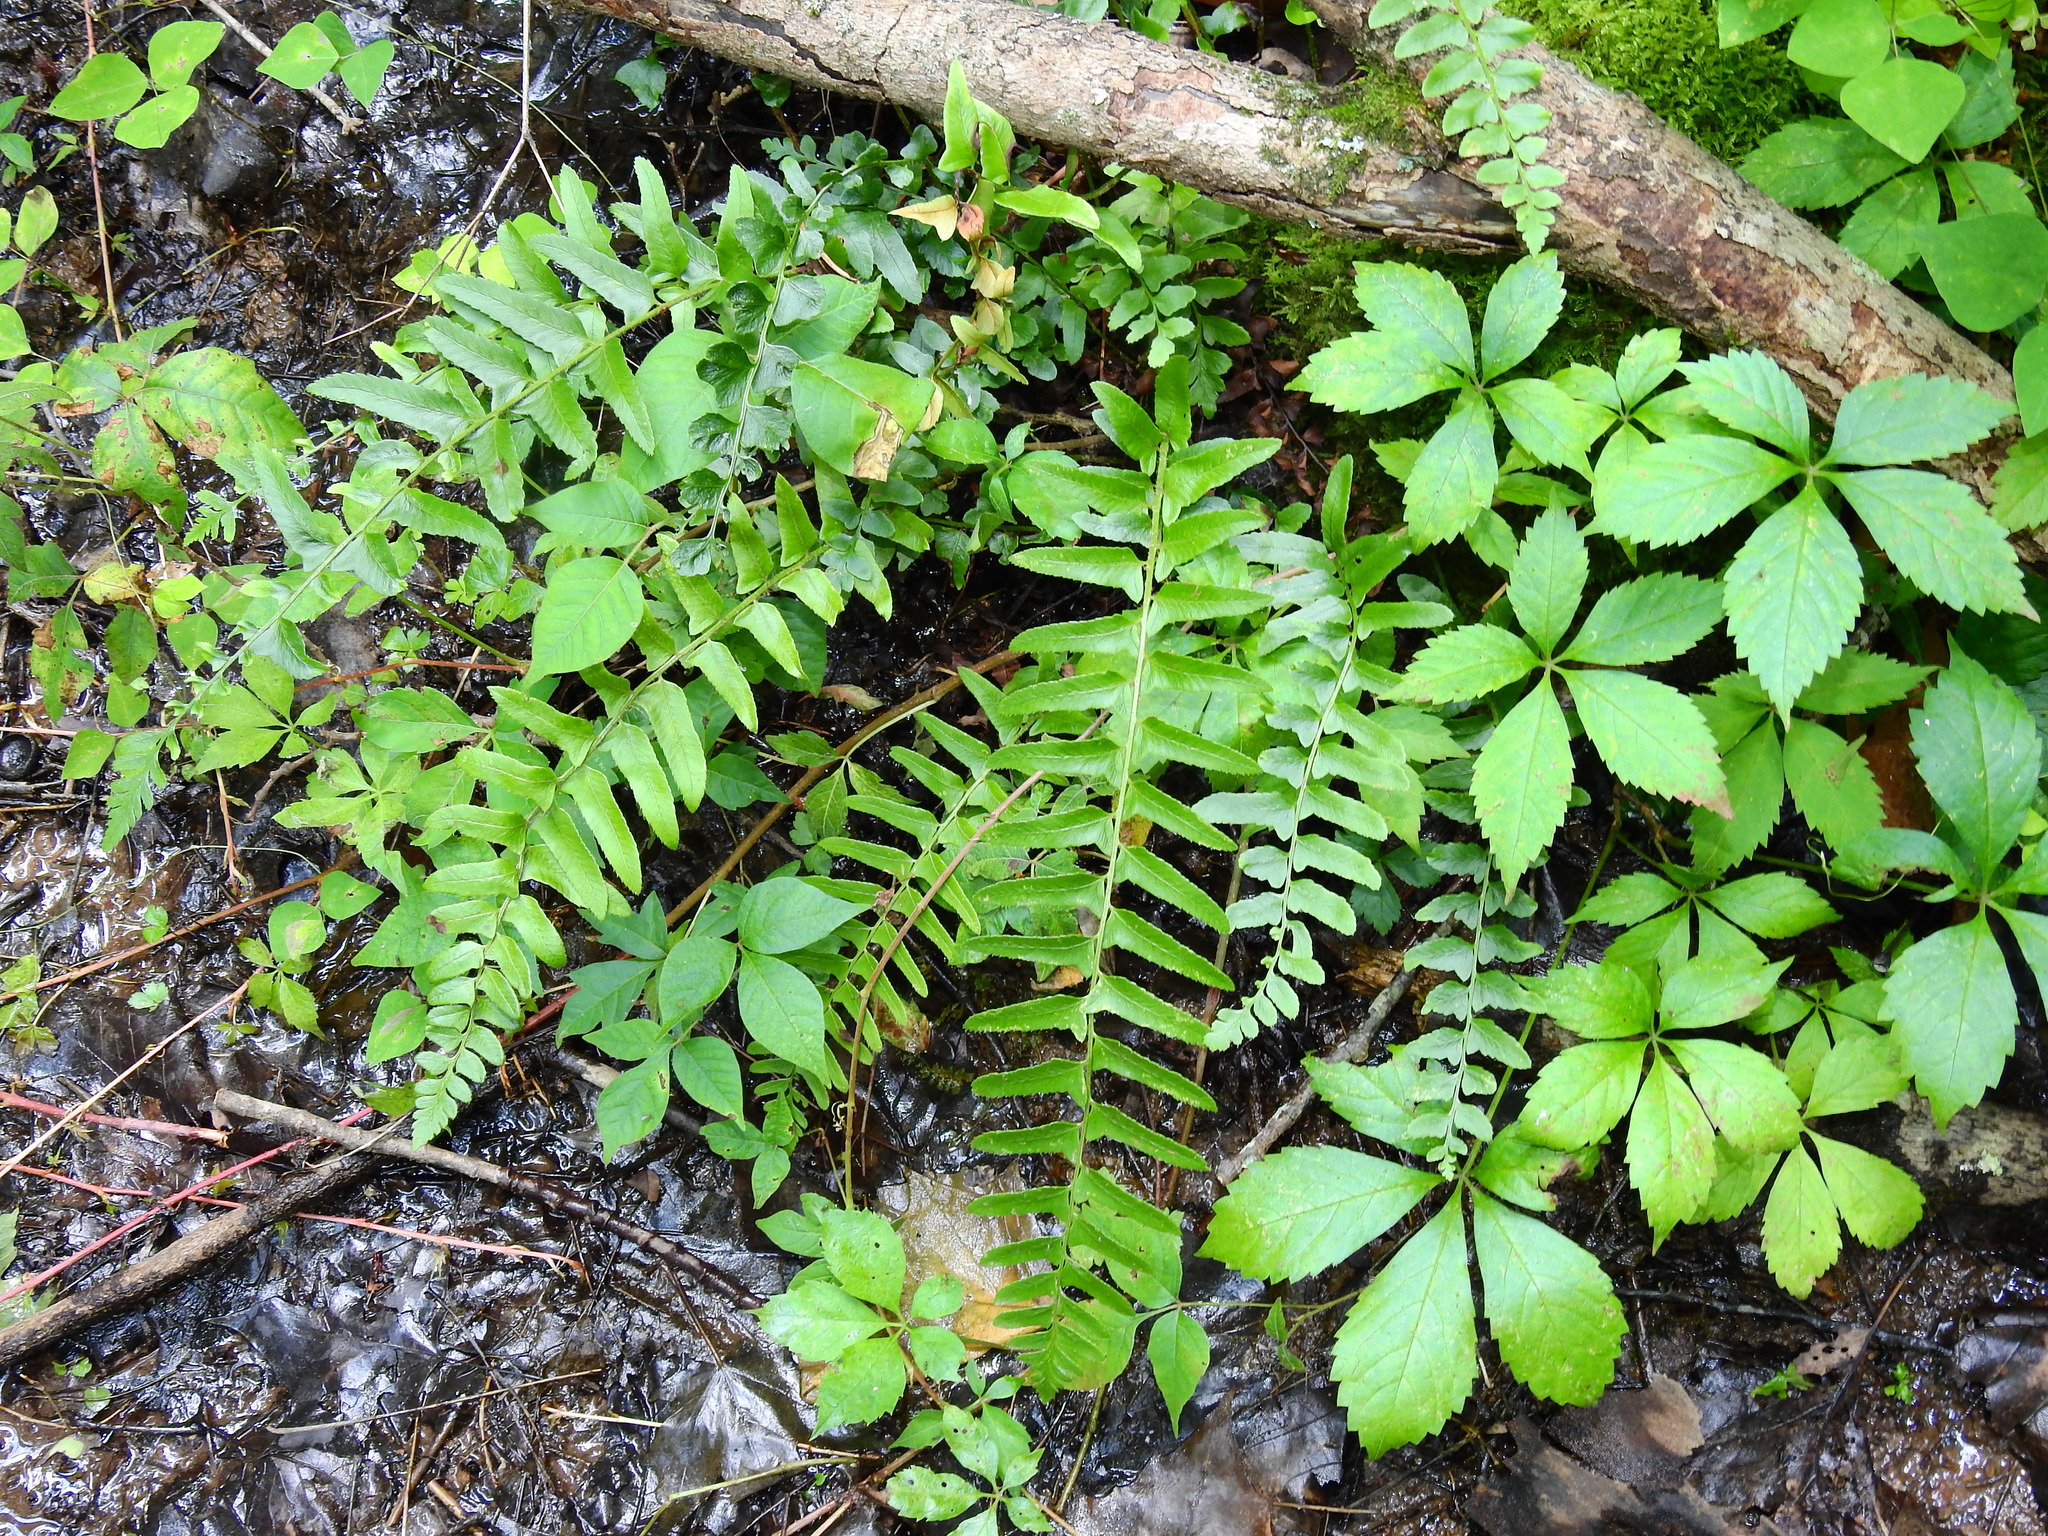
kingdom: Plantae
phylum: Tracheophyta
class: Polypodiopsida
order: Polypodiales
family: Dryopteridaceae
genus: Polystichum
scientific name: Polystichum acrostichoides
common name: Christmas fern
